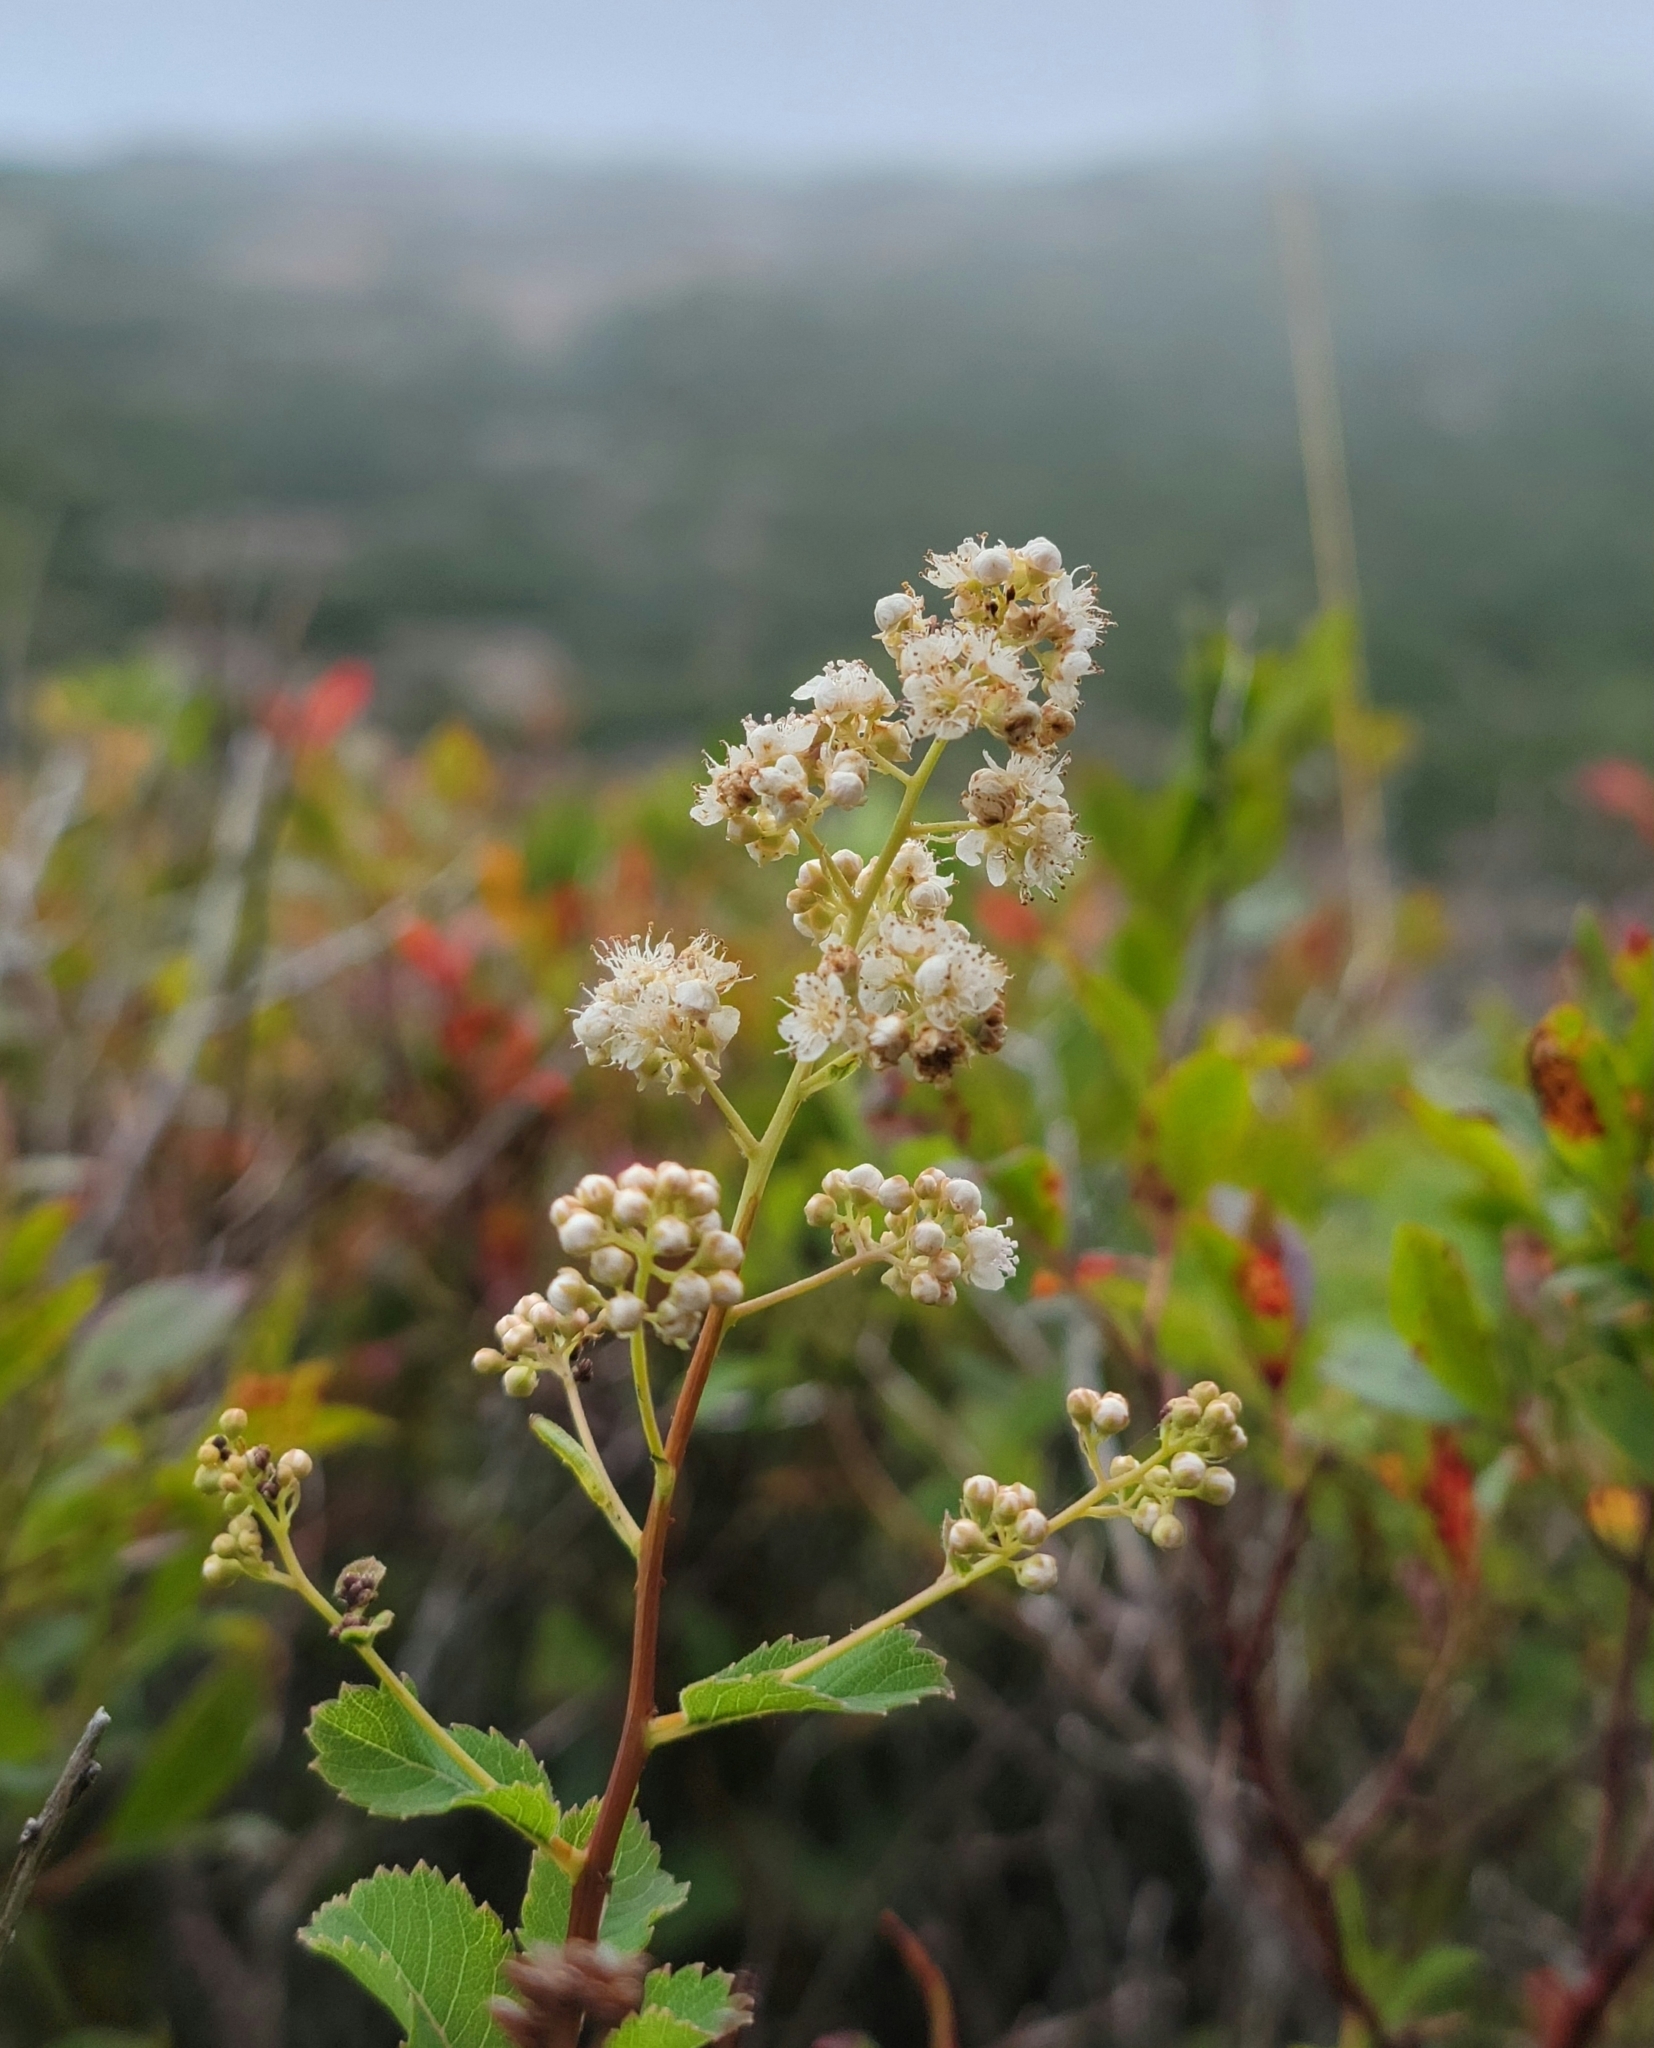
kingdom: Plantae
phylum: Tracheophyta
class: Magnoliopsida
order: Rosales
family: Rosaceae
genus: Spiraea
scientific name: Spiraea alba
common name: Pale bridewort
